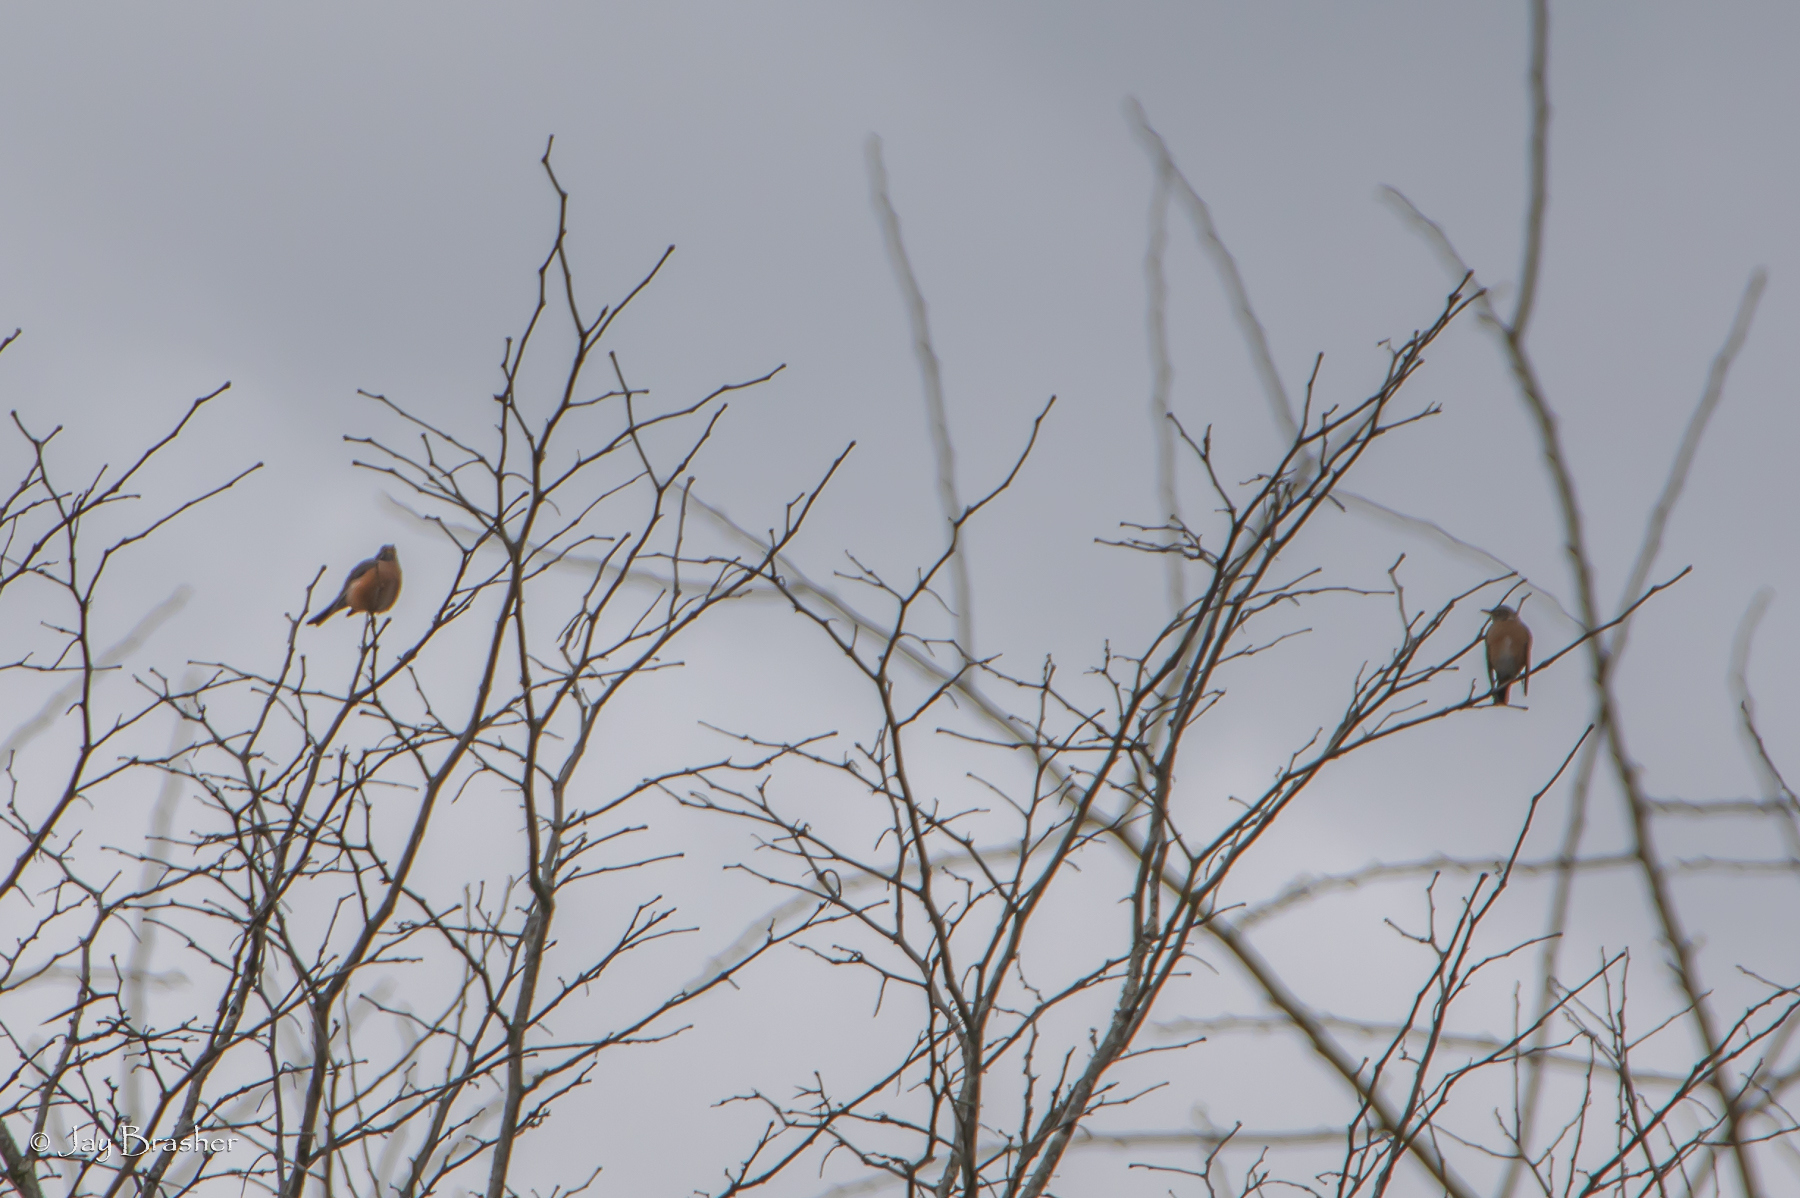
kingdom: Animalia
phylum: Chordata
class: Aves
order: Passeriformes
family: Turdidae
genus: Turdus
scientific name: Turdus migratorius
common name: American robin
